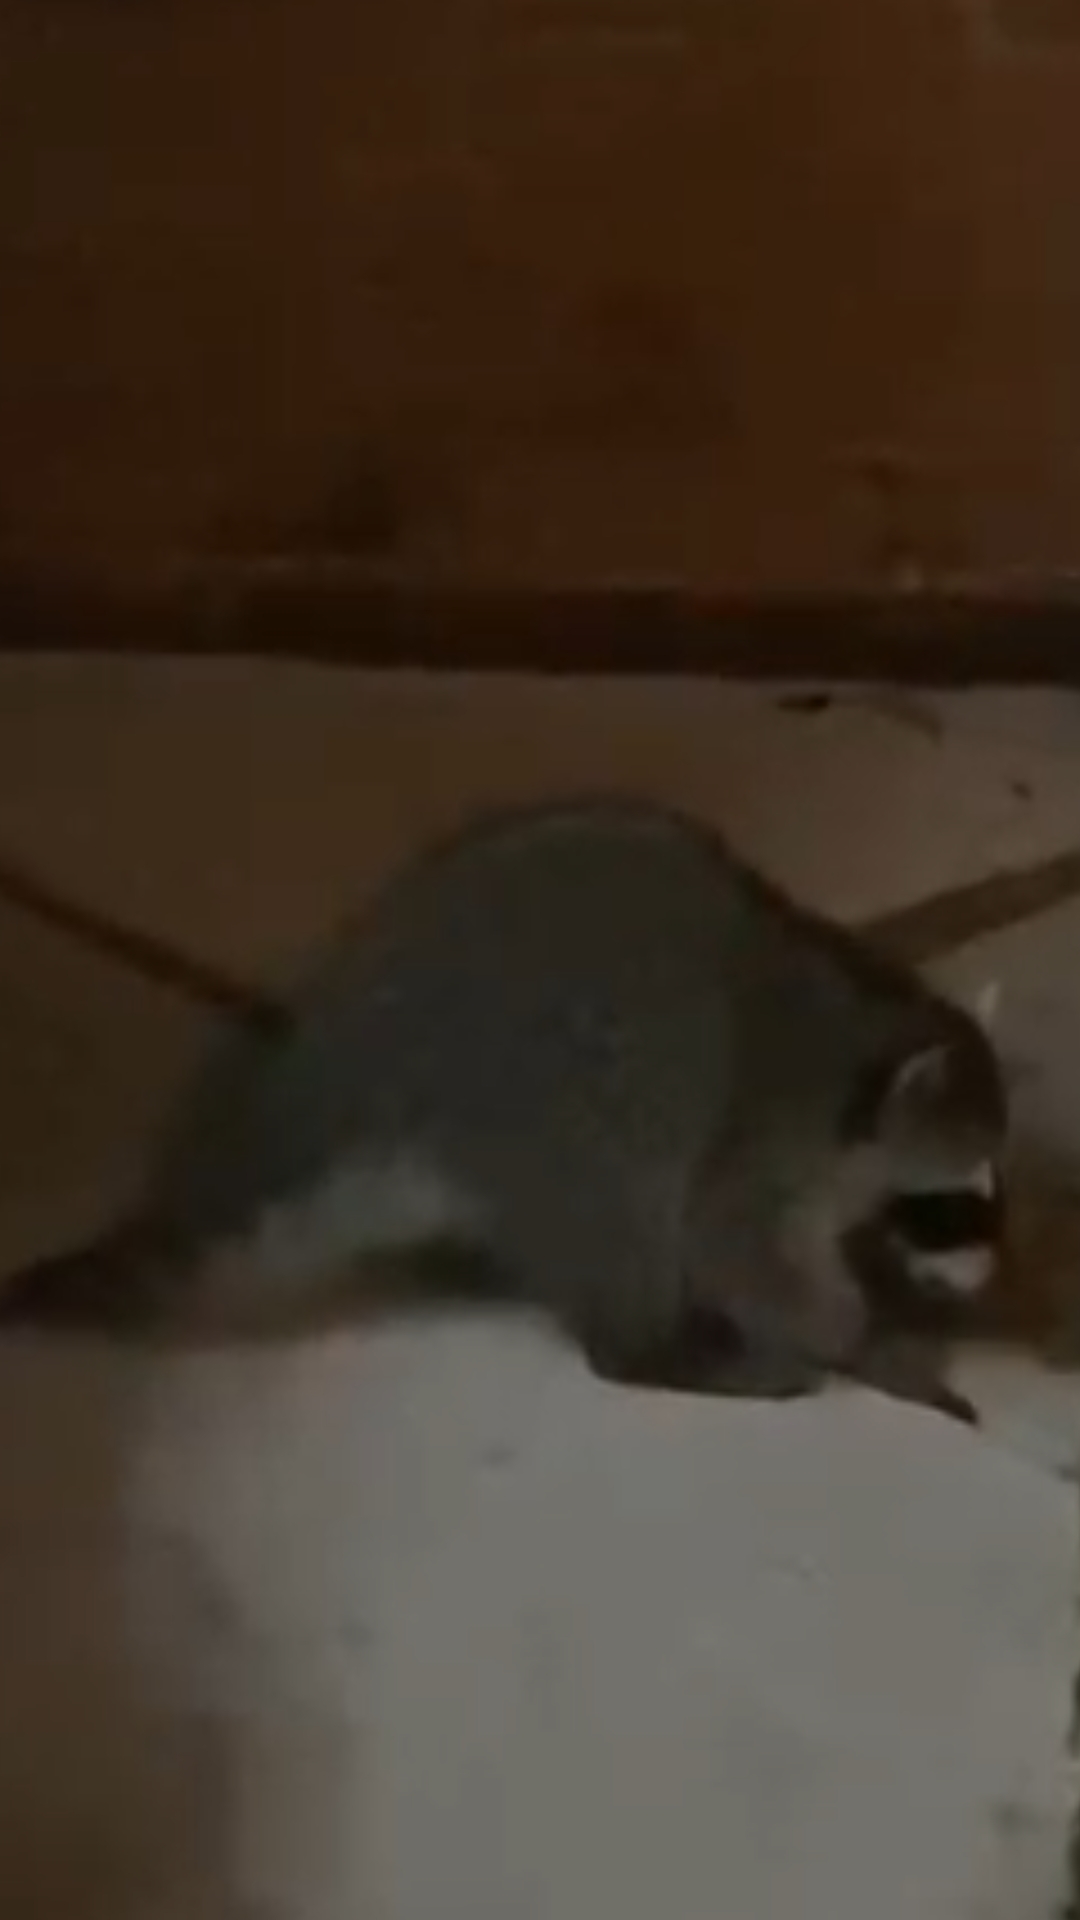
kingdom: Animalia
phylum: Chordata
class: Mammalia
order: Carnivora
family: Procyonidae
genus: Procyon
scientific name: Procyon lotor
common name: Raccoon
